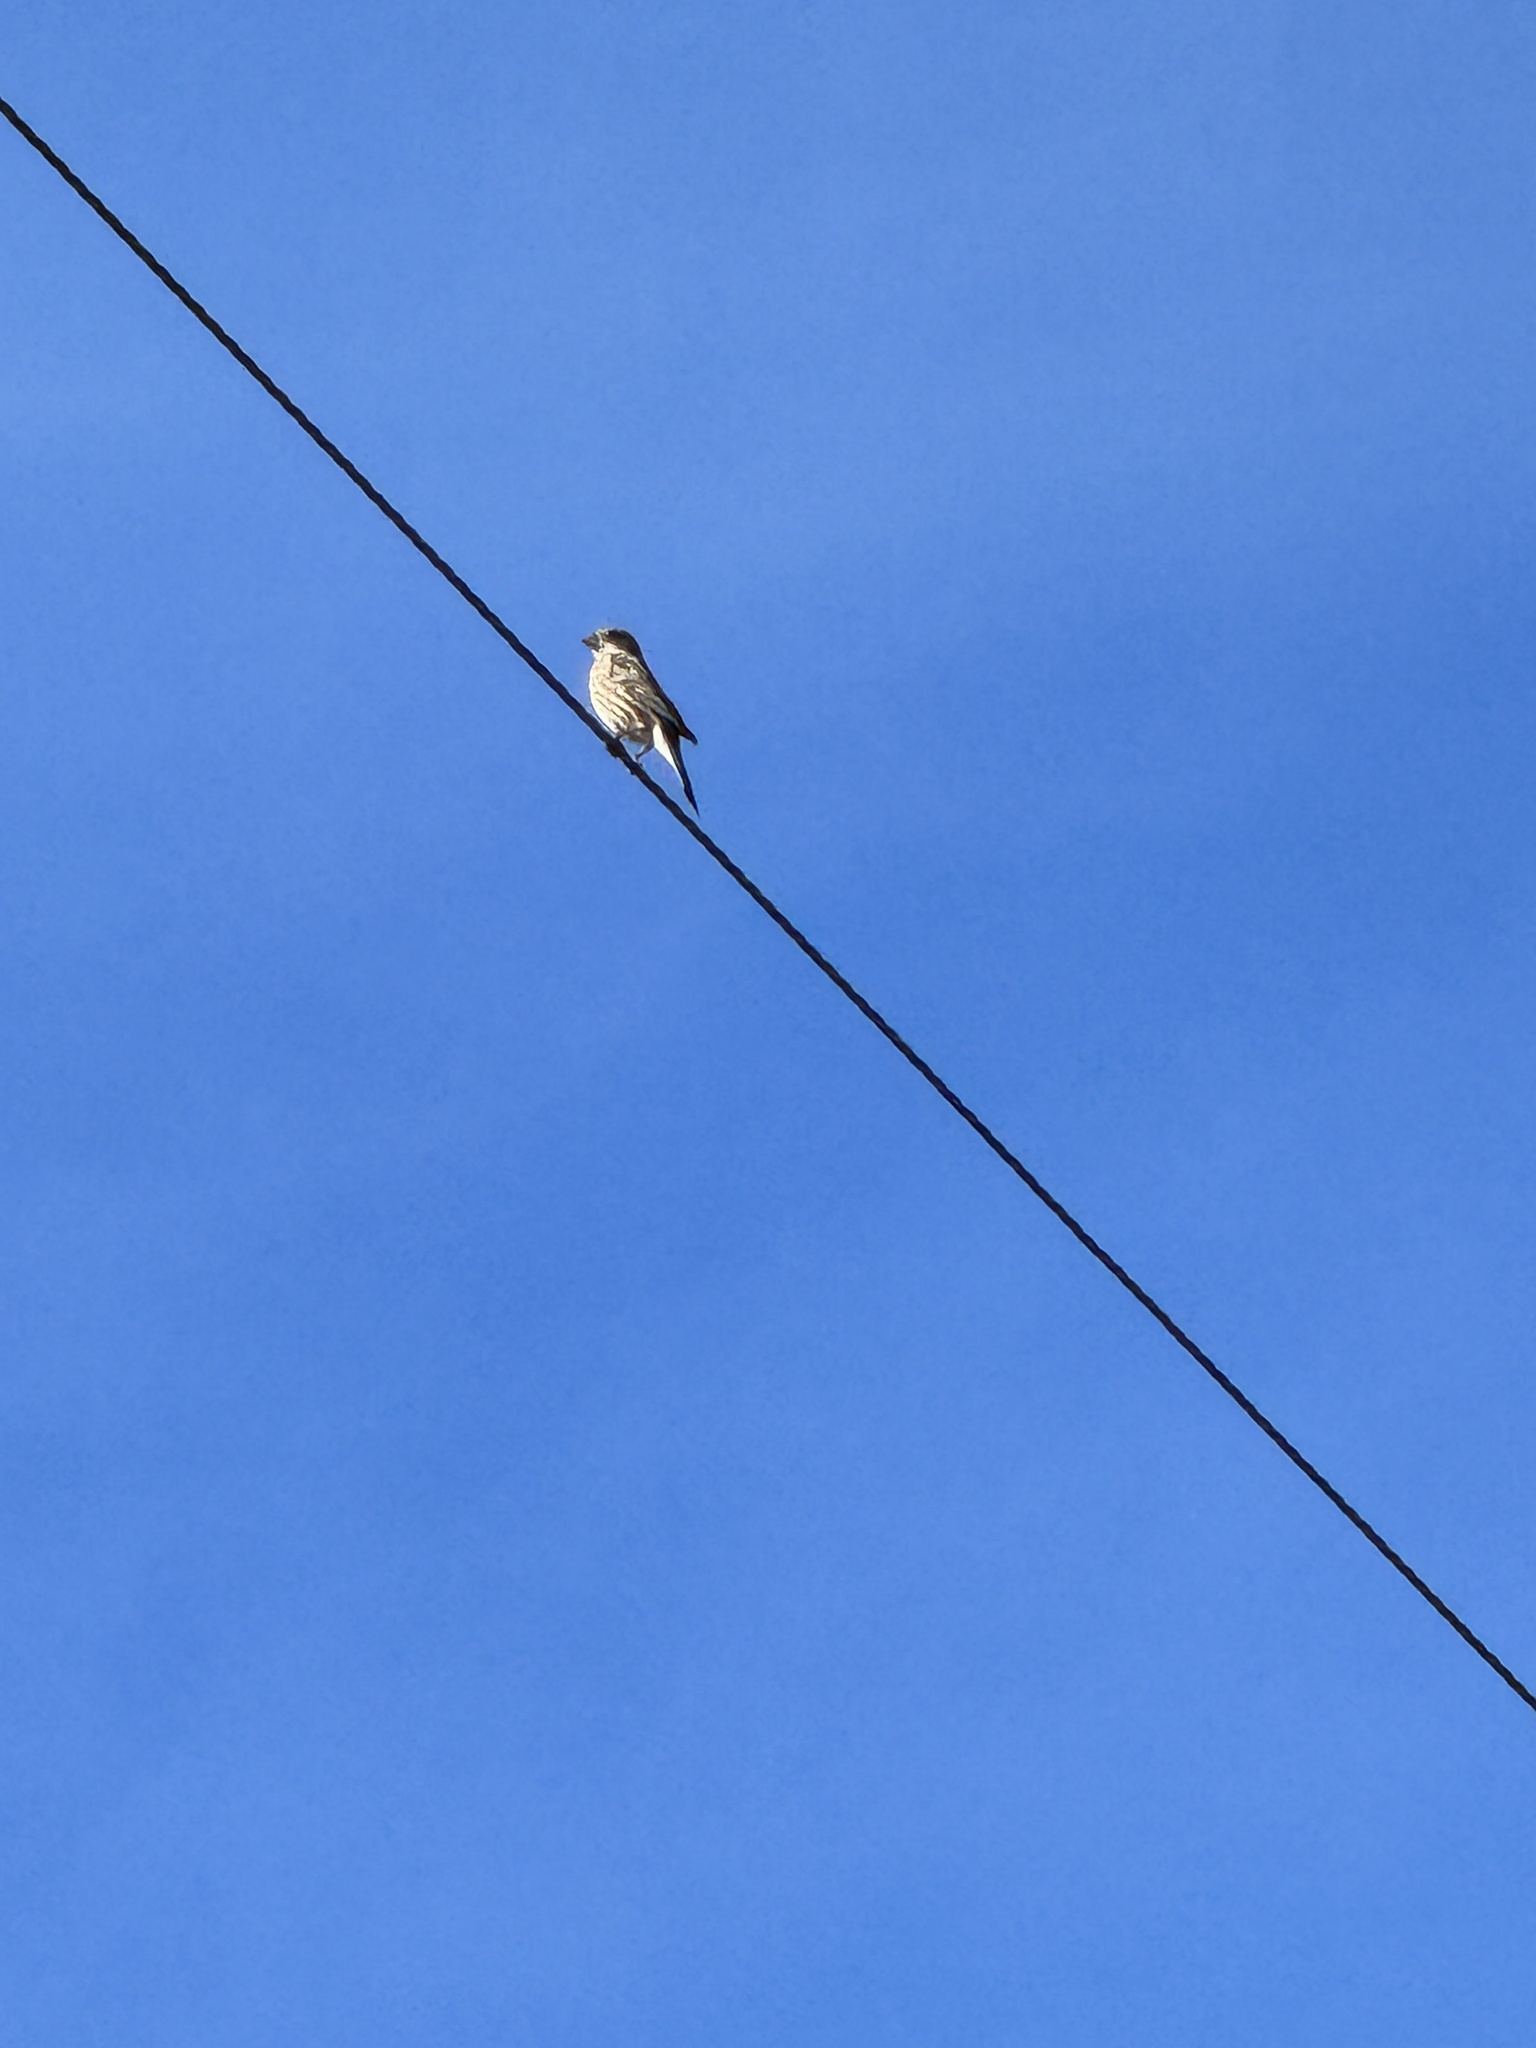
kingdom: Animalia
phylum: Chordata
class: Aves
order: Passeriformes
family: Fringillidae
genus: Haemorhous
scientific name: Haemorhous mexicanus
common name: House finch
